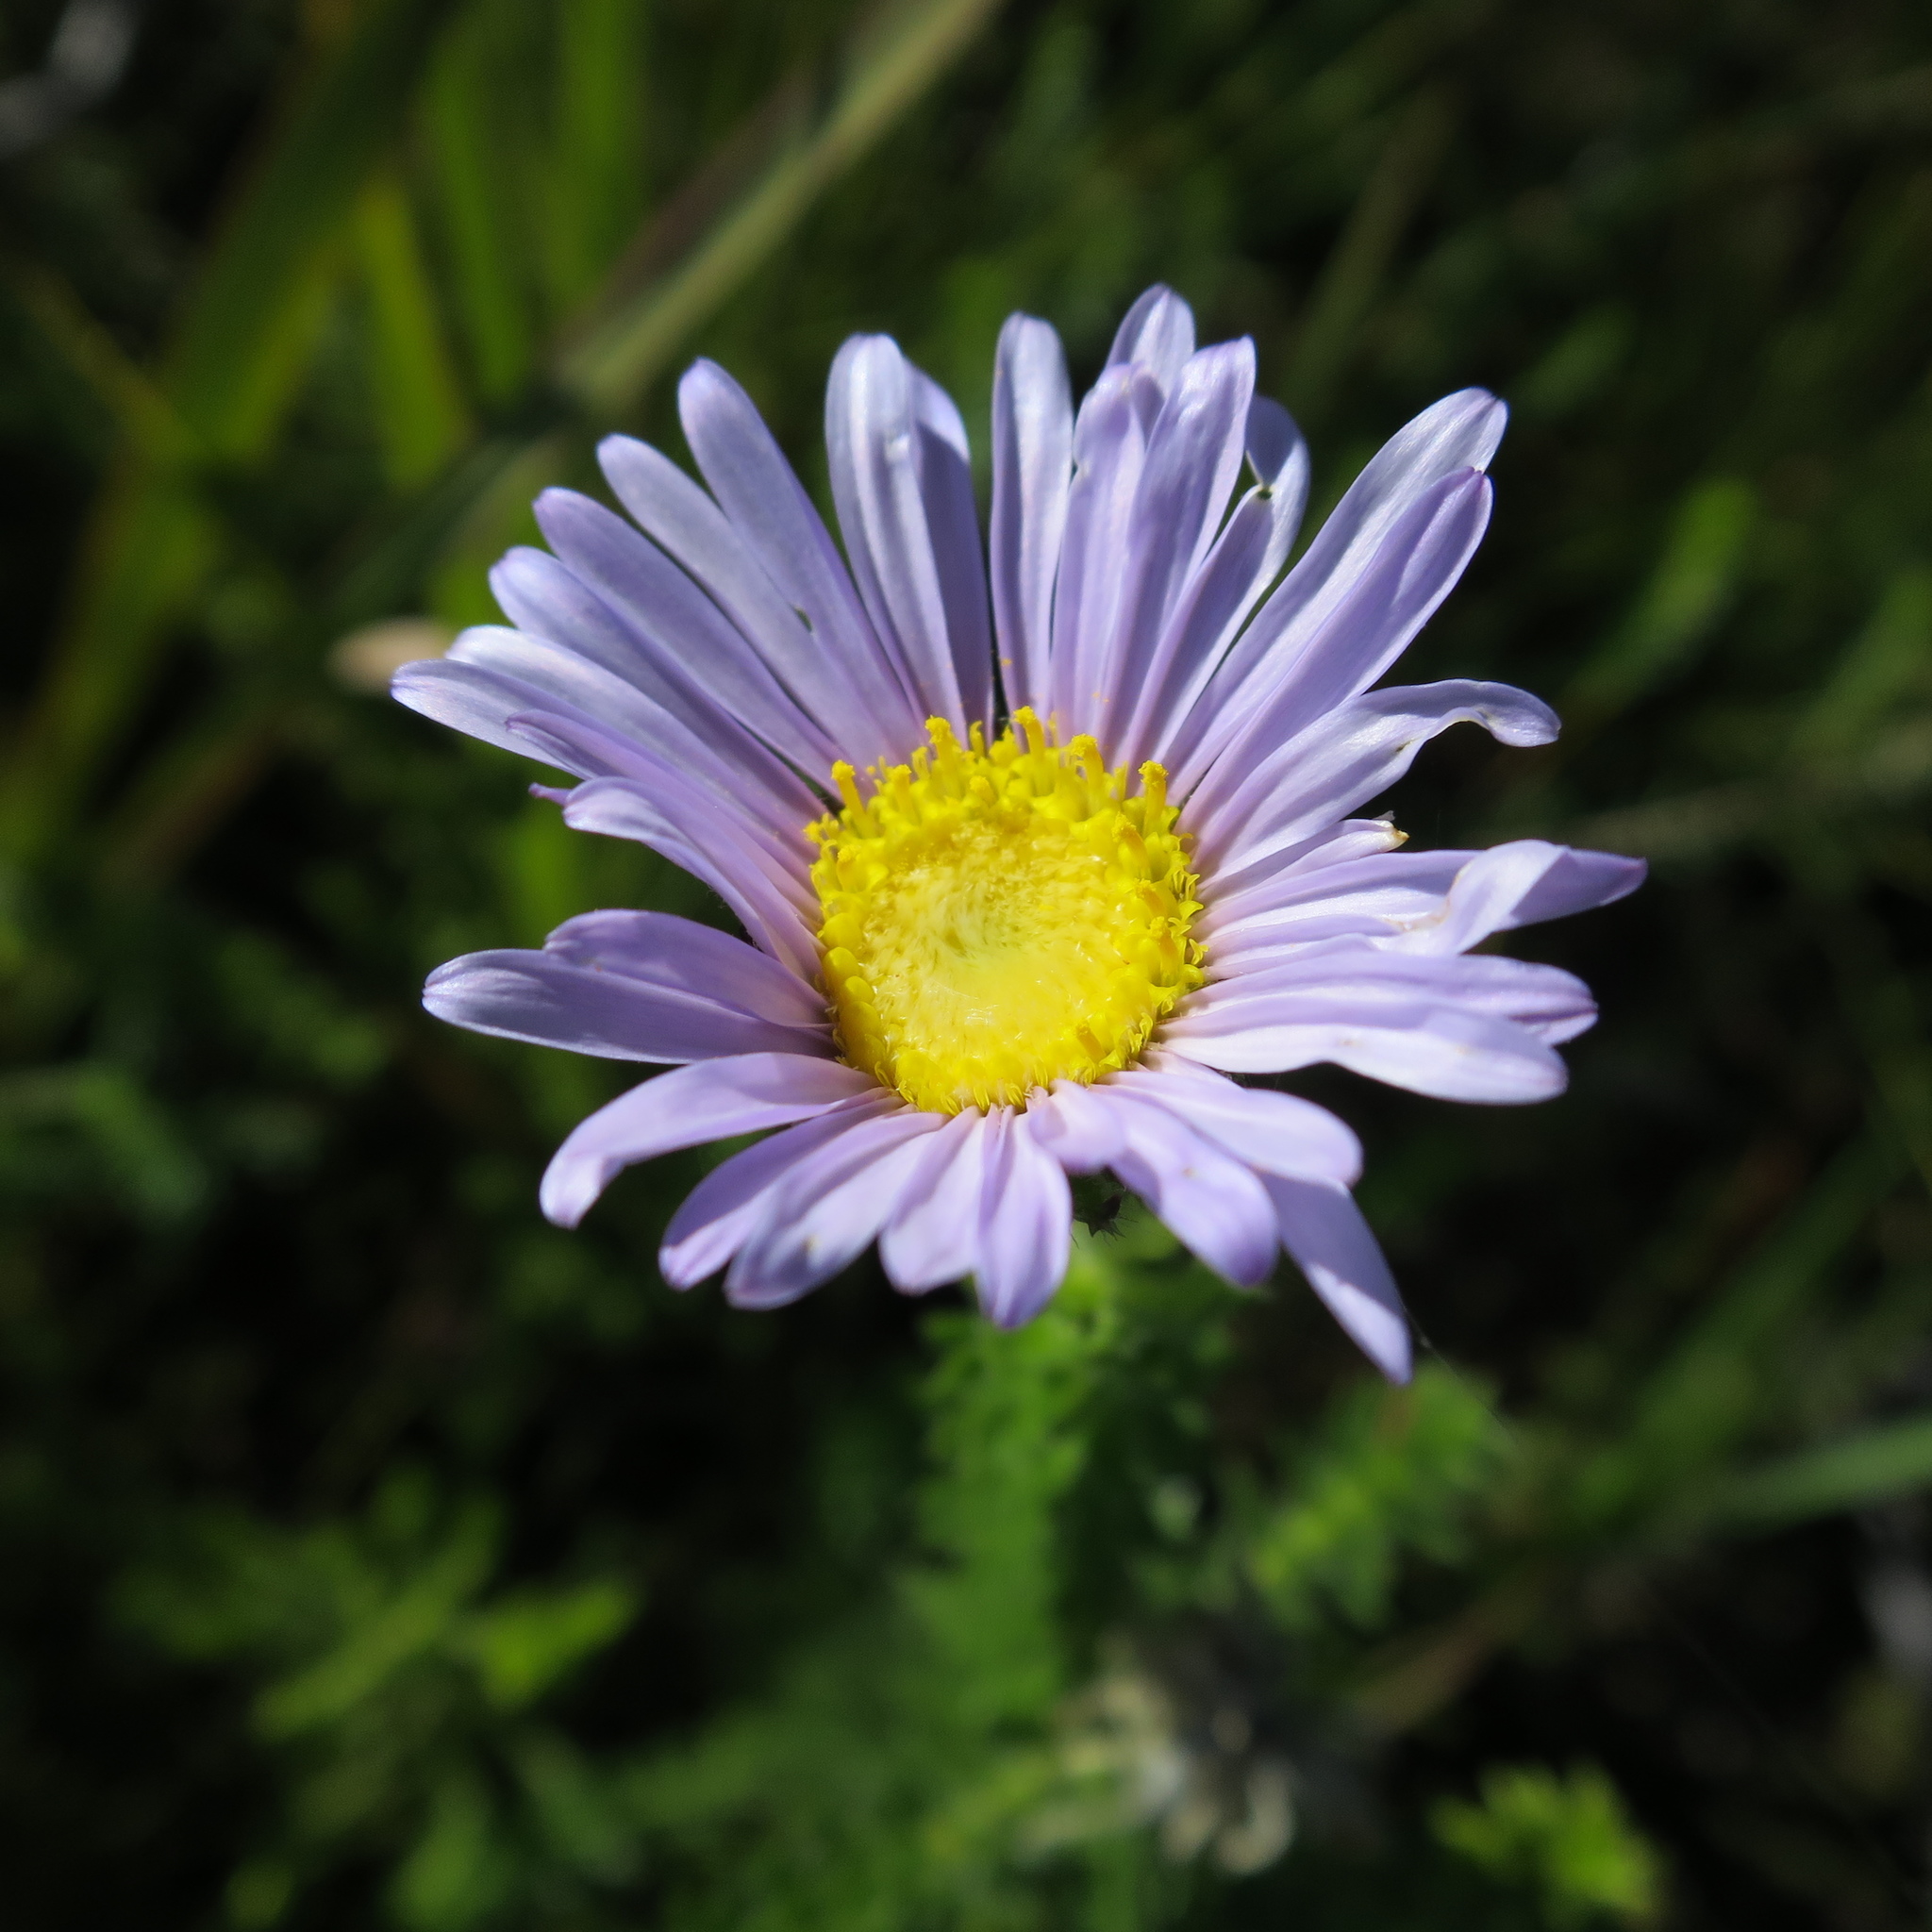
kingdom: Plantae
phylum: Tracheophyta
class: Magnoliopsida
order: Asterales
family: Asteraceae
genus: Felicia
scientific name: Felicia echinata
